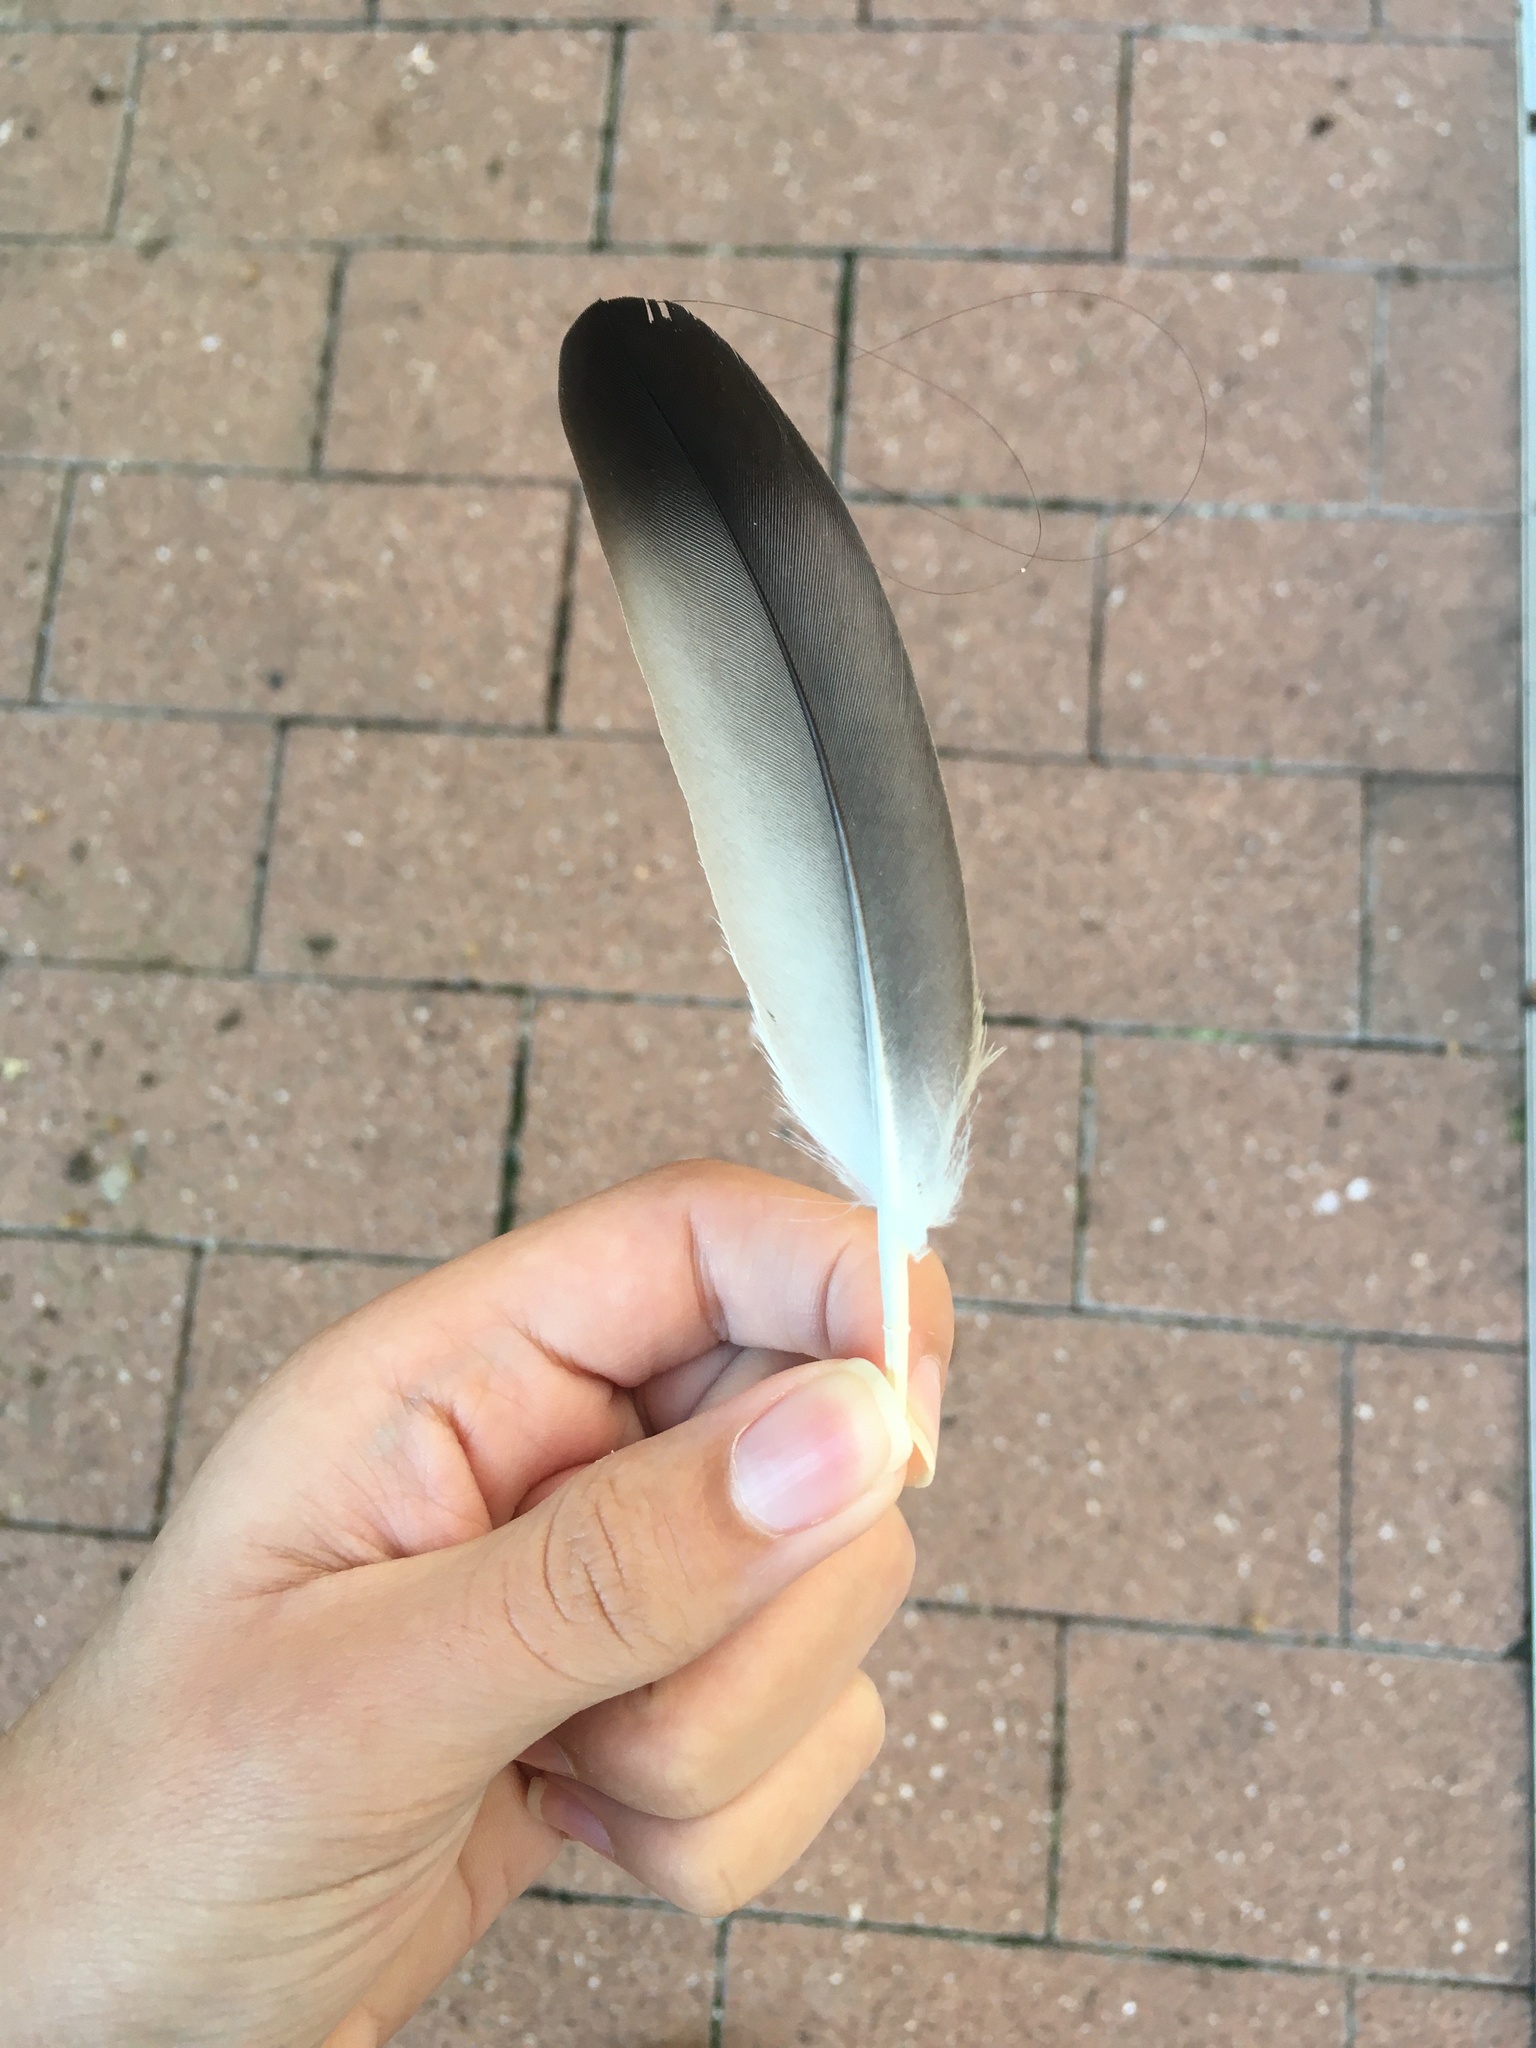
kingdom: Animalia
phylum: Chordata
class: Aves
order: Columbiformes
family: Columbidae
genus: Columba
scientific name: Columba livia
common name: Rock pigeon
